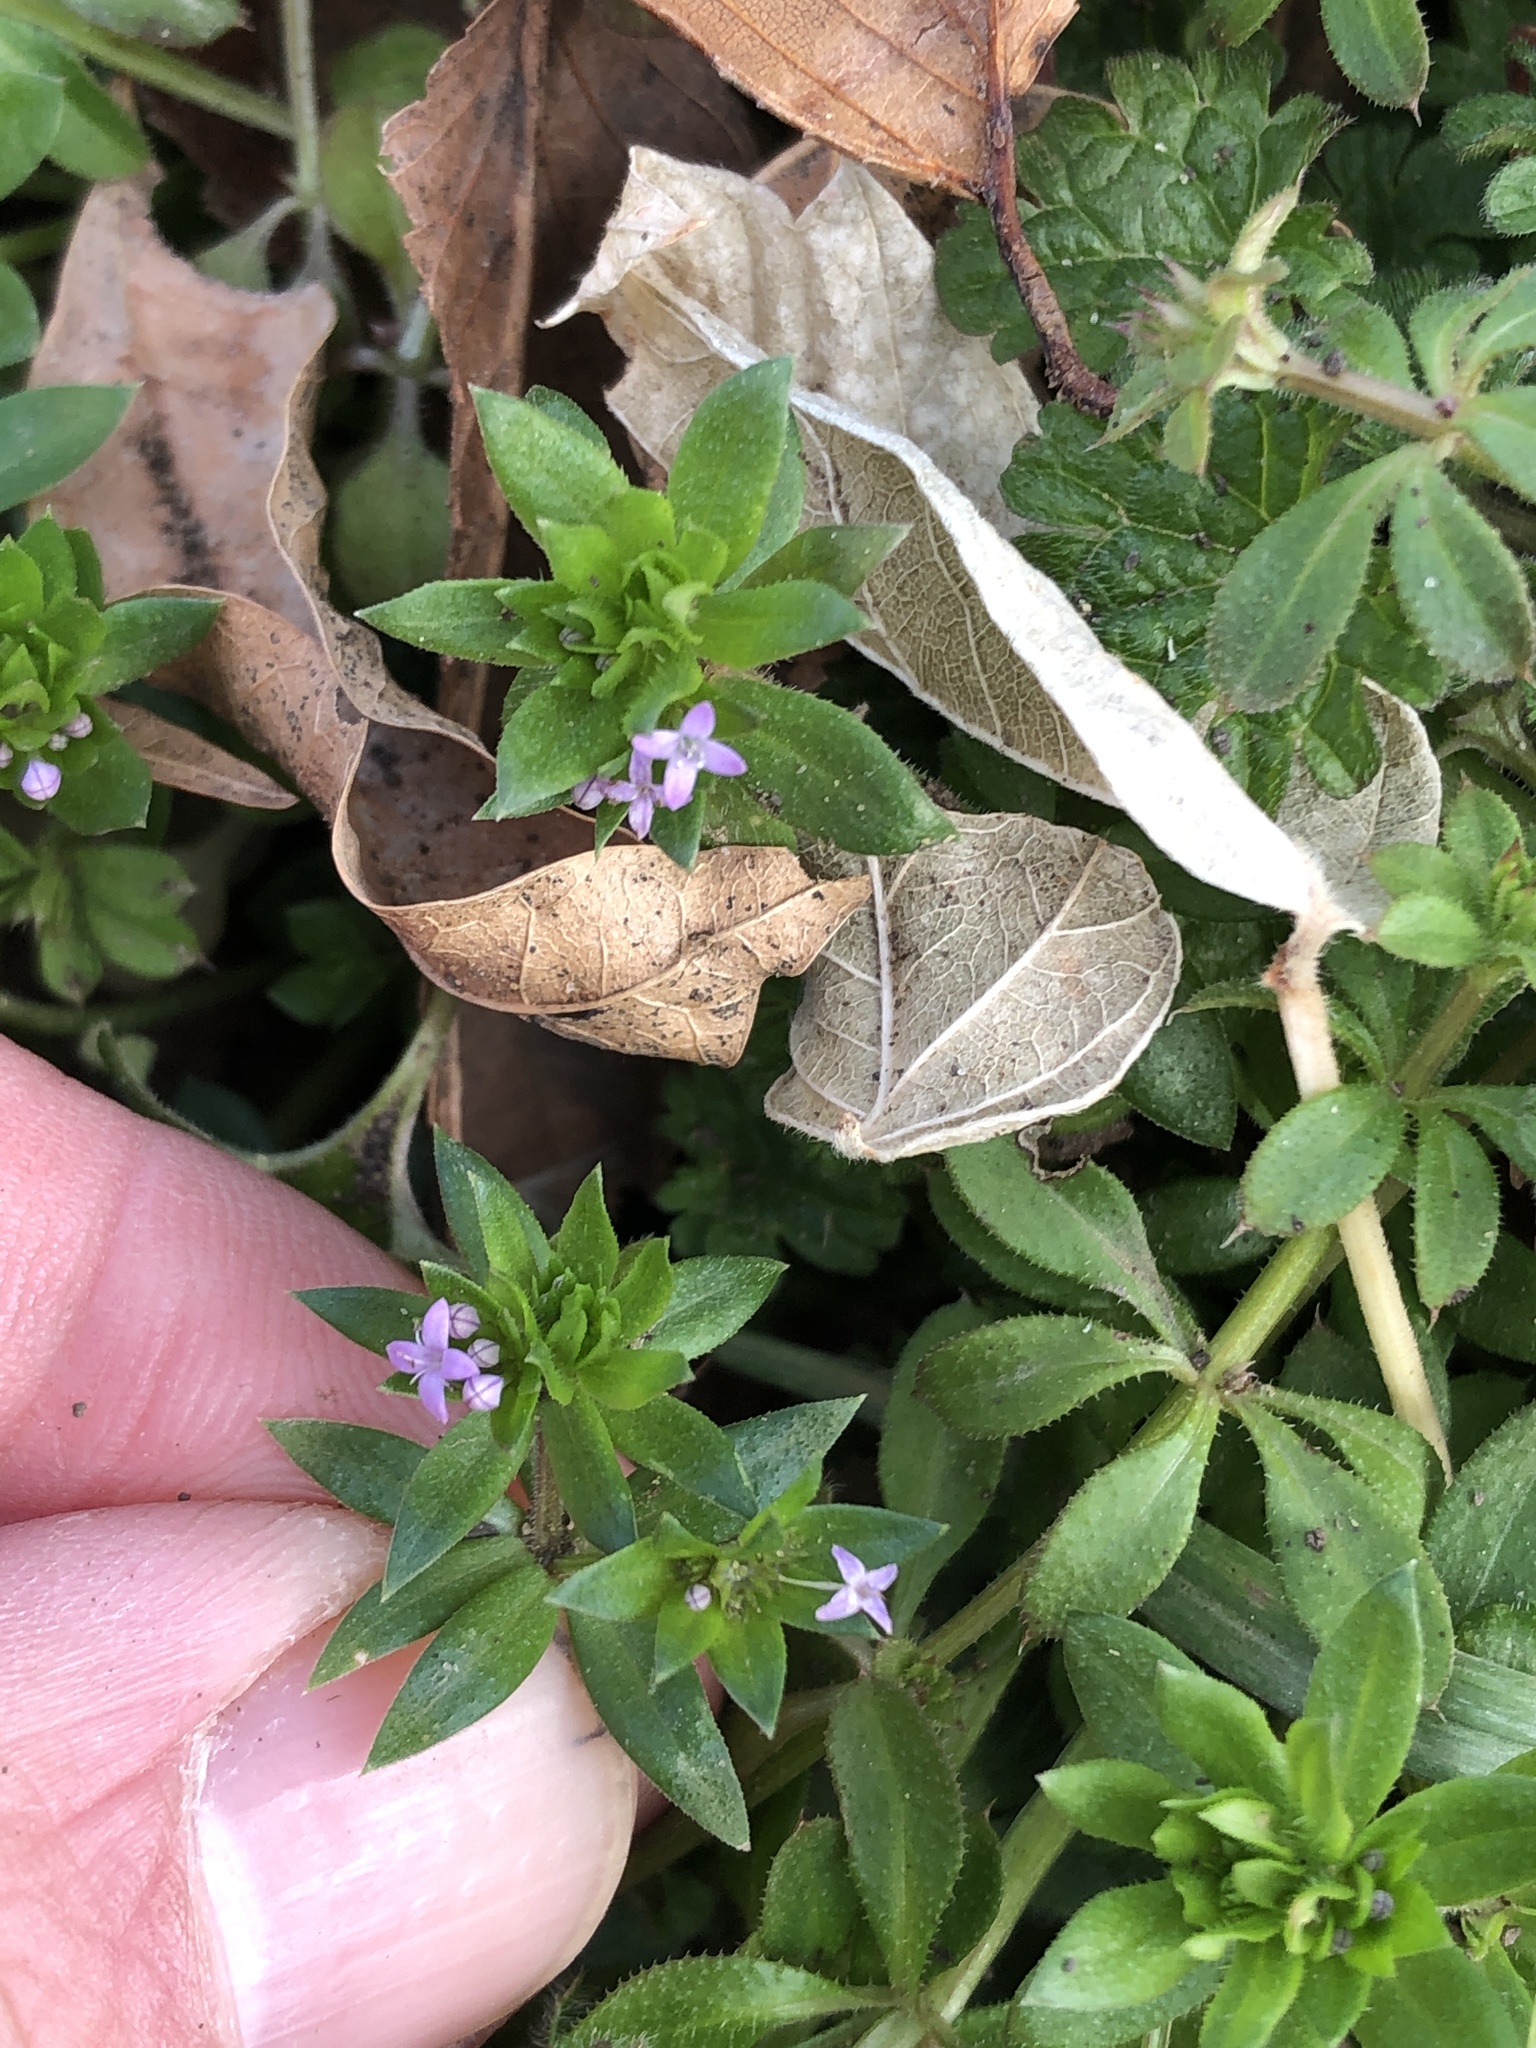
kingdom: Plantae
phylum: Tracheophyta
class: Magnoliopsida
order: Gentianales
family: Rubiaceae
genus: Sherardia
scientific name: Sherardia arvensis
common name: Field madder
